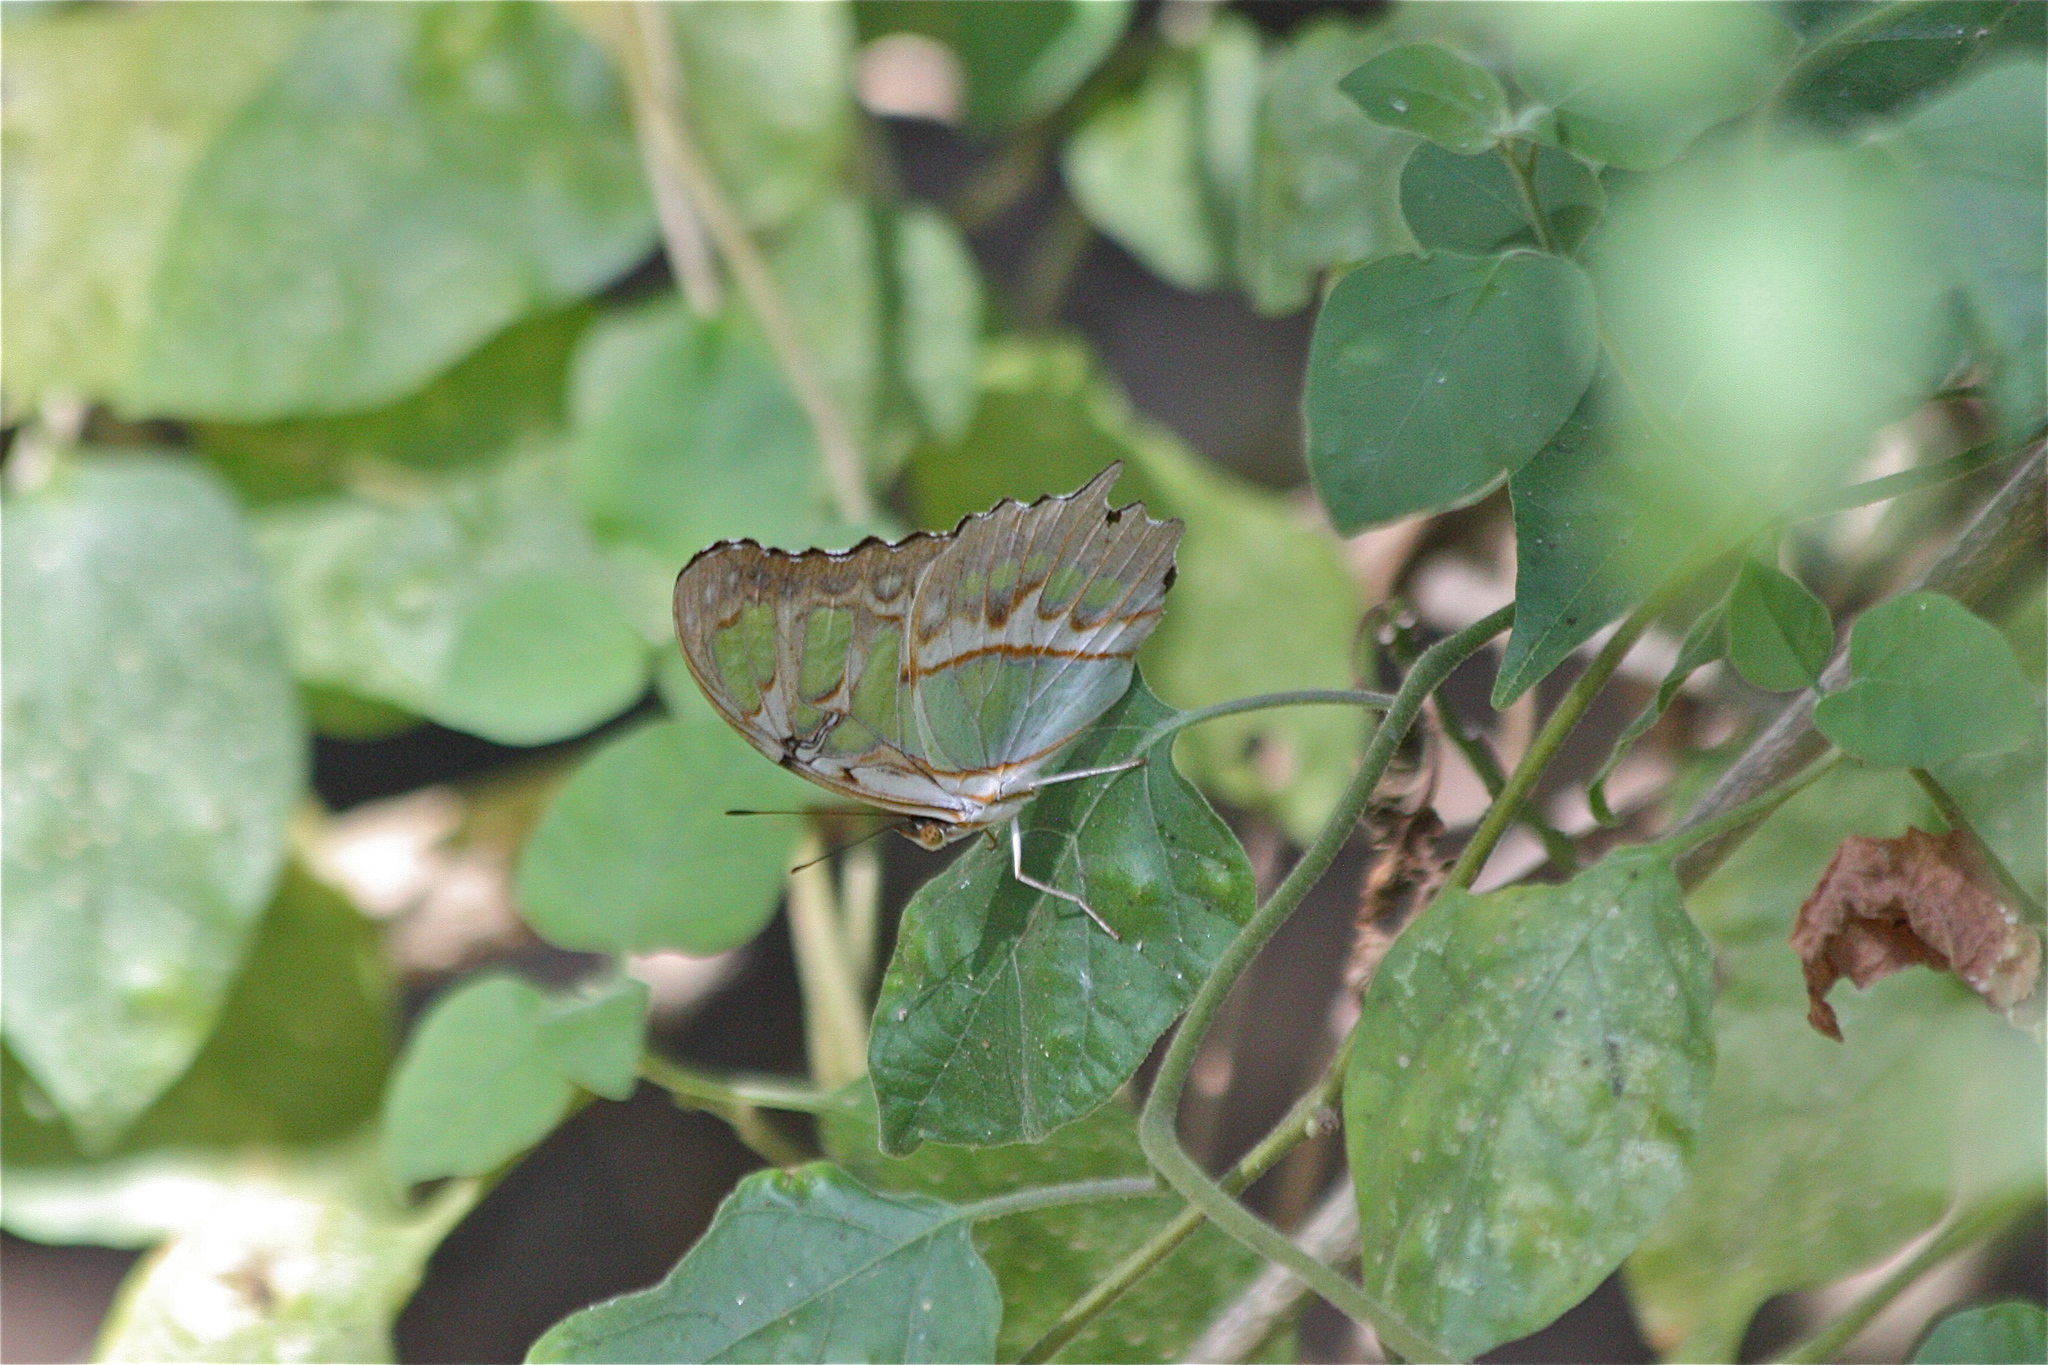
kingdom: Animalia
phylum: Arthropoda
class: Insecta
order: Lepidoptera
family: Nymphalidae
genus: Siproeta
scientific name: Siproeta stelenes
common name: Malachite
